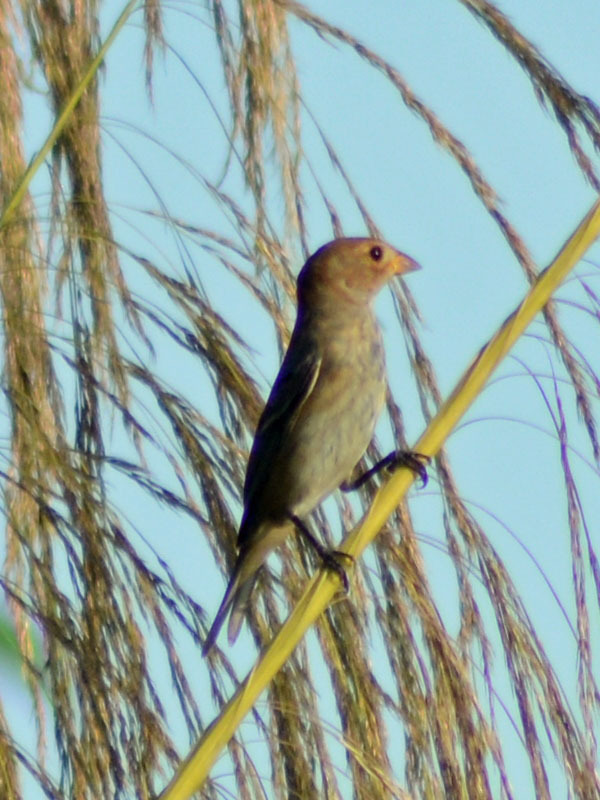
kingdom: Animalia
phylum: Chordata
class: Aves
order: Passeriformes
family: Cardinalidae
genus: Passerina
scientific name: Passerina cyanea
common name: Indigo bunting
